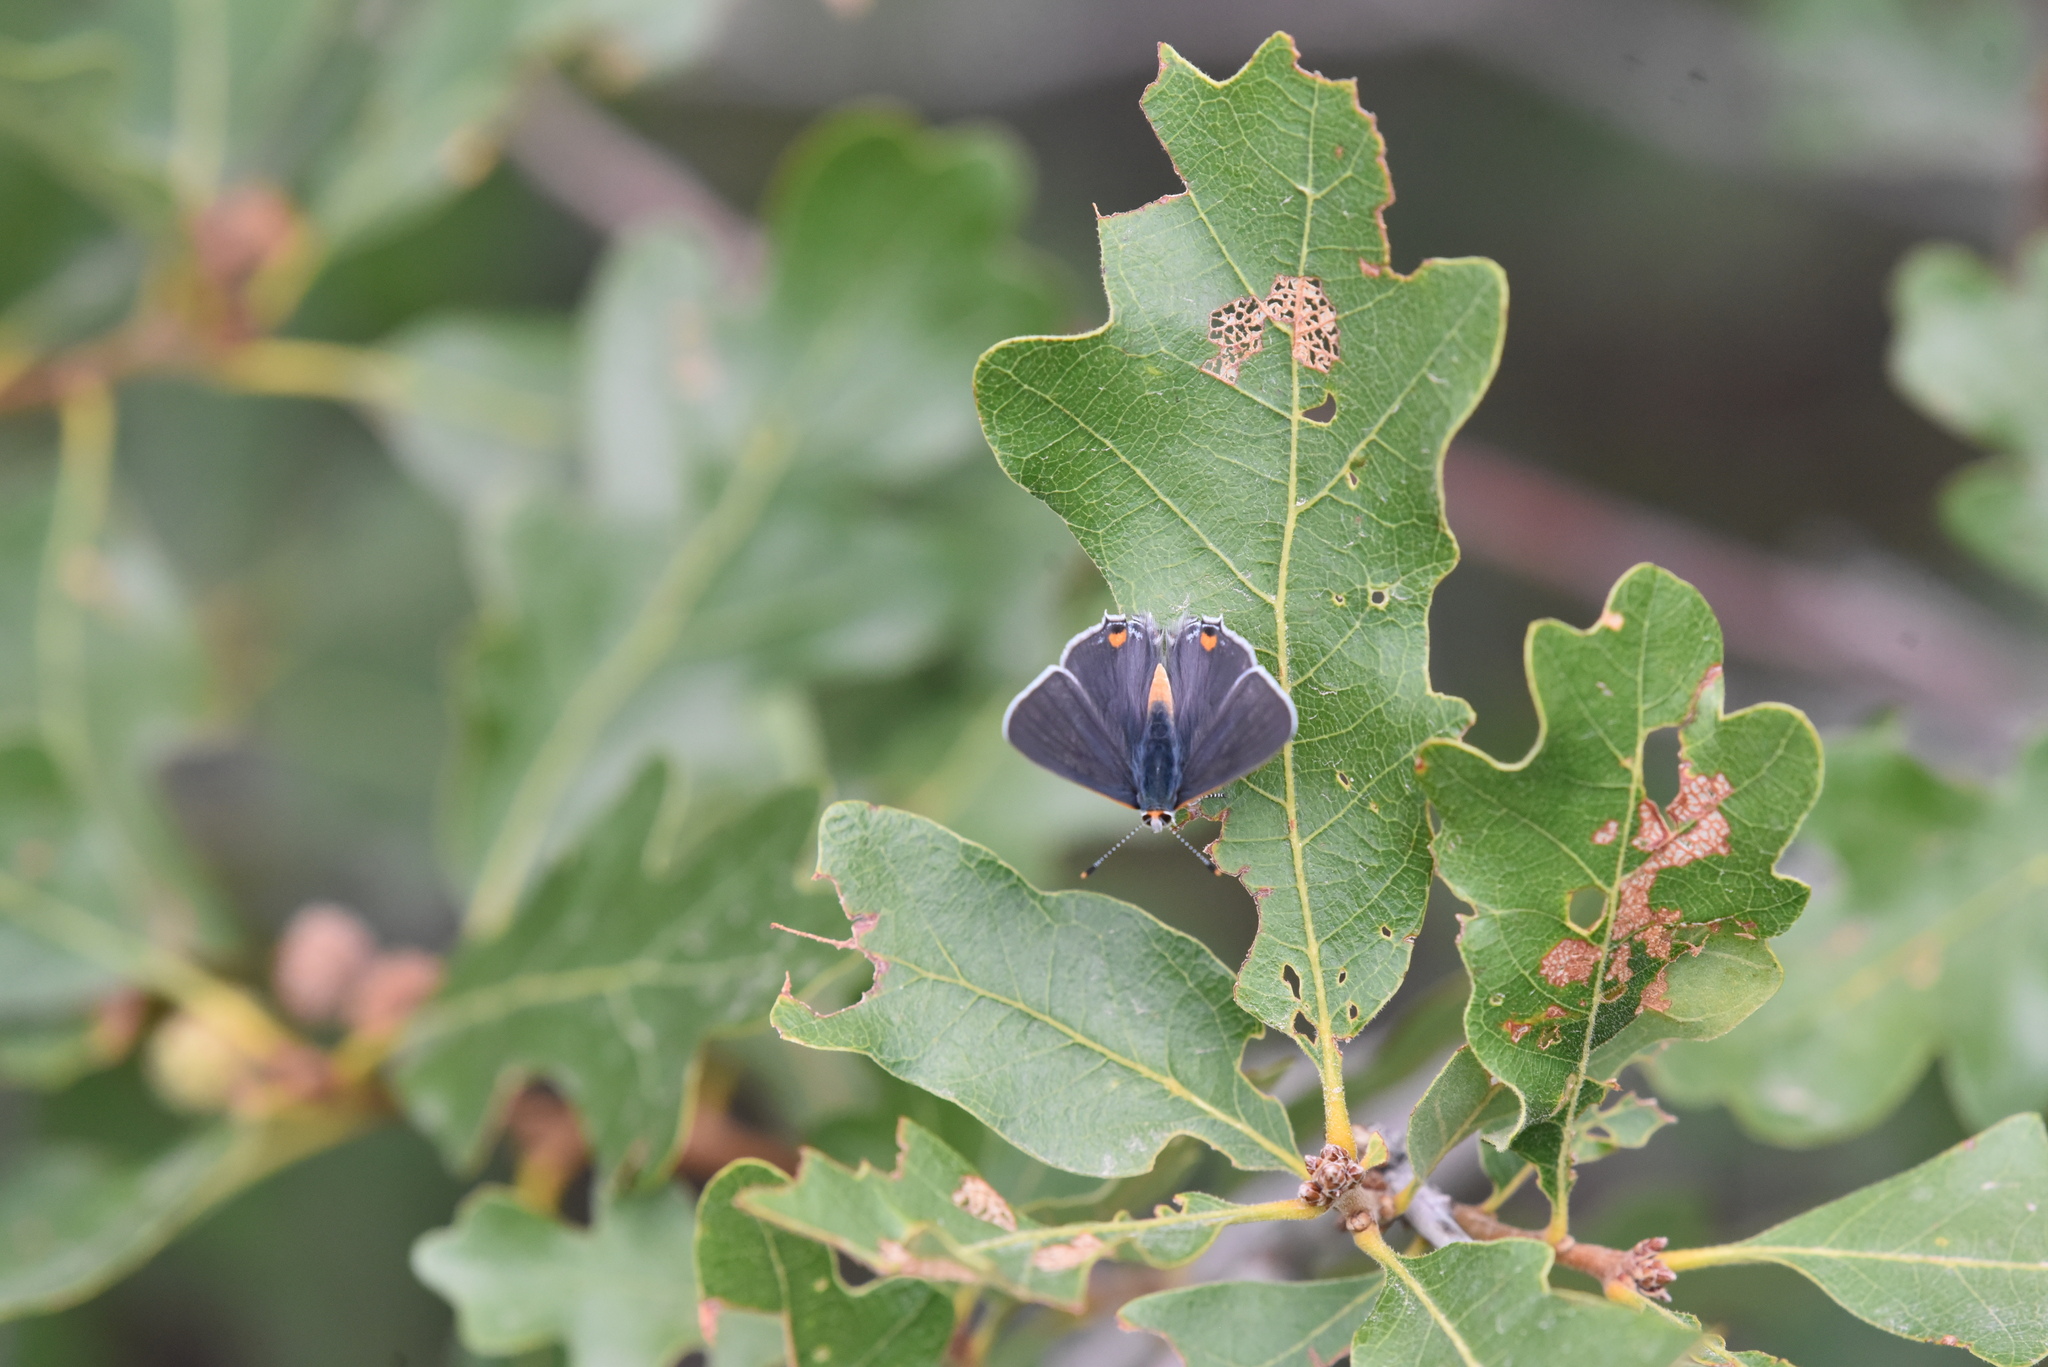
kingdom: Animalia
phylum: Arthropoda
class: Insecta
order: Lepidoptera
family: Lycaenidae
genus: Strymon
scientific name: Strymon melinus
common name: Gray hairstreak
